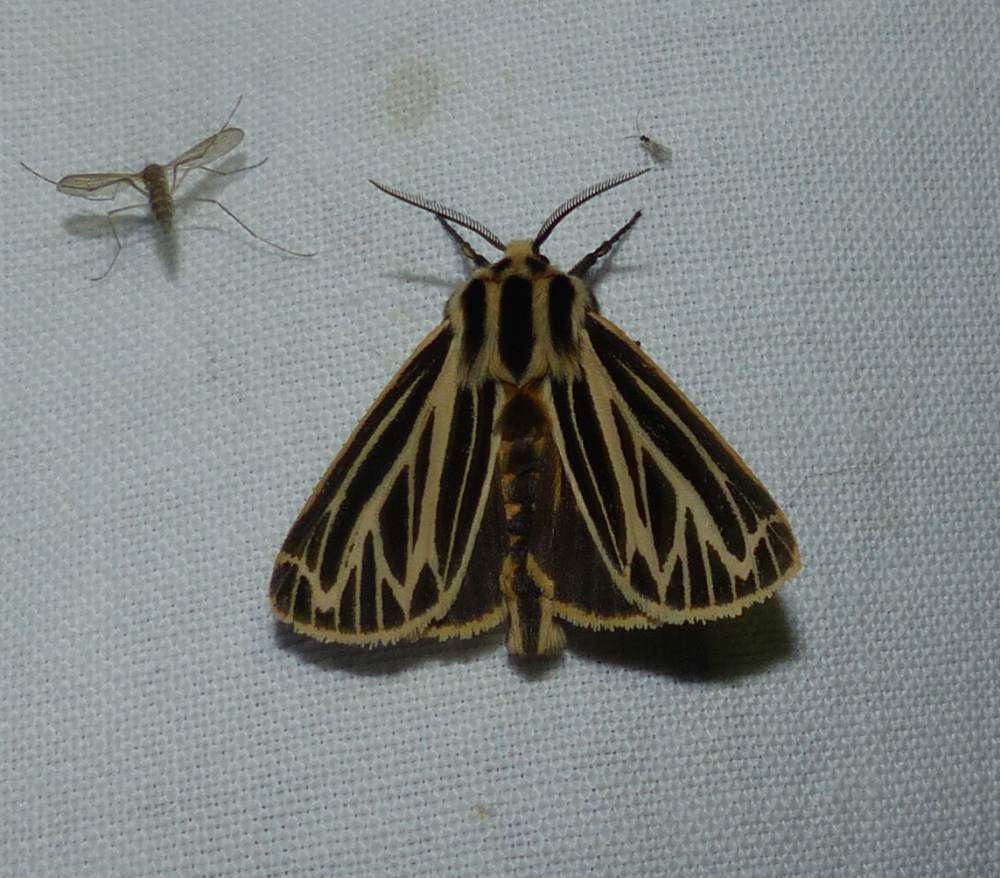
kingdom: Animalia
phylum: Arthropoda
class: Insecta
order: Lepidoptera
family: Erebidae
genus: Grammia
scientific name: Grammia virguncula
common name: Little tiger moth
